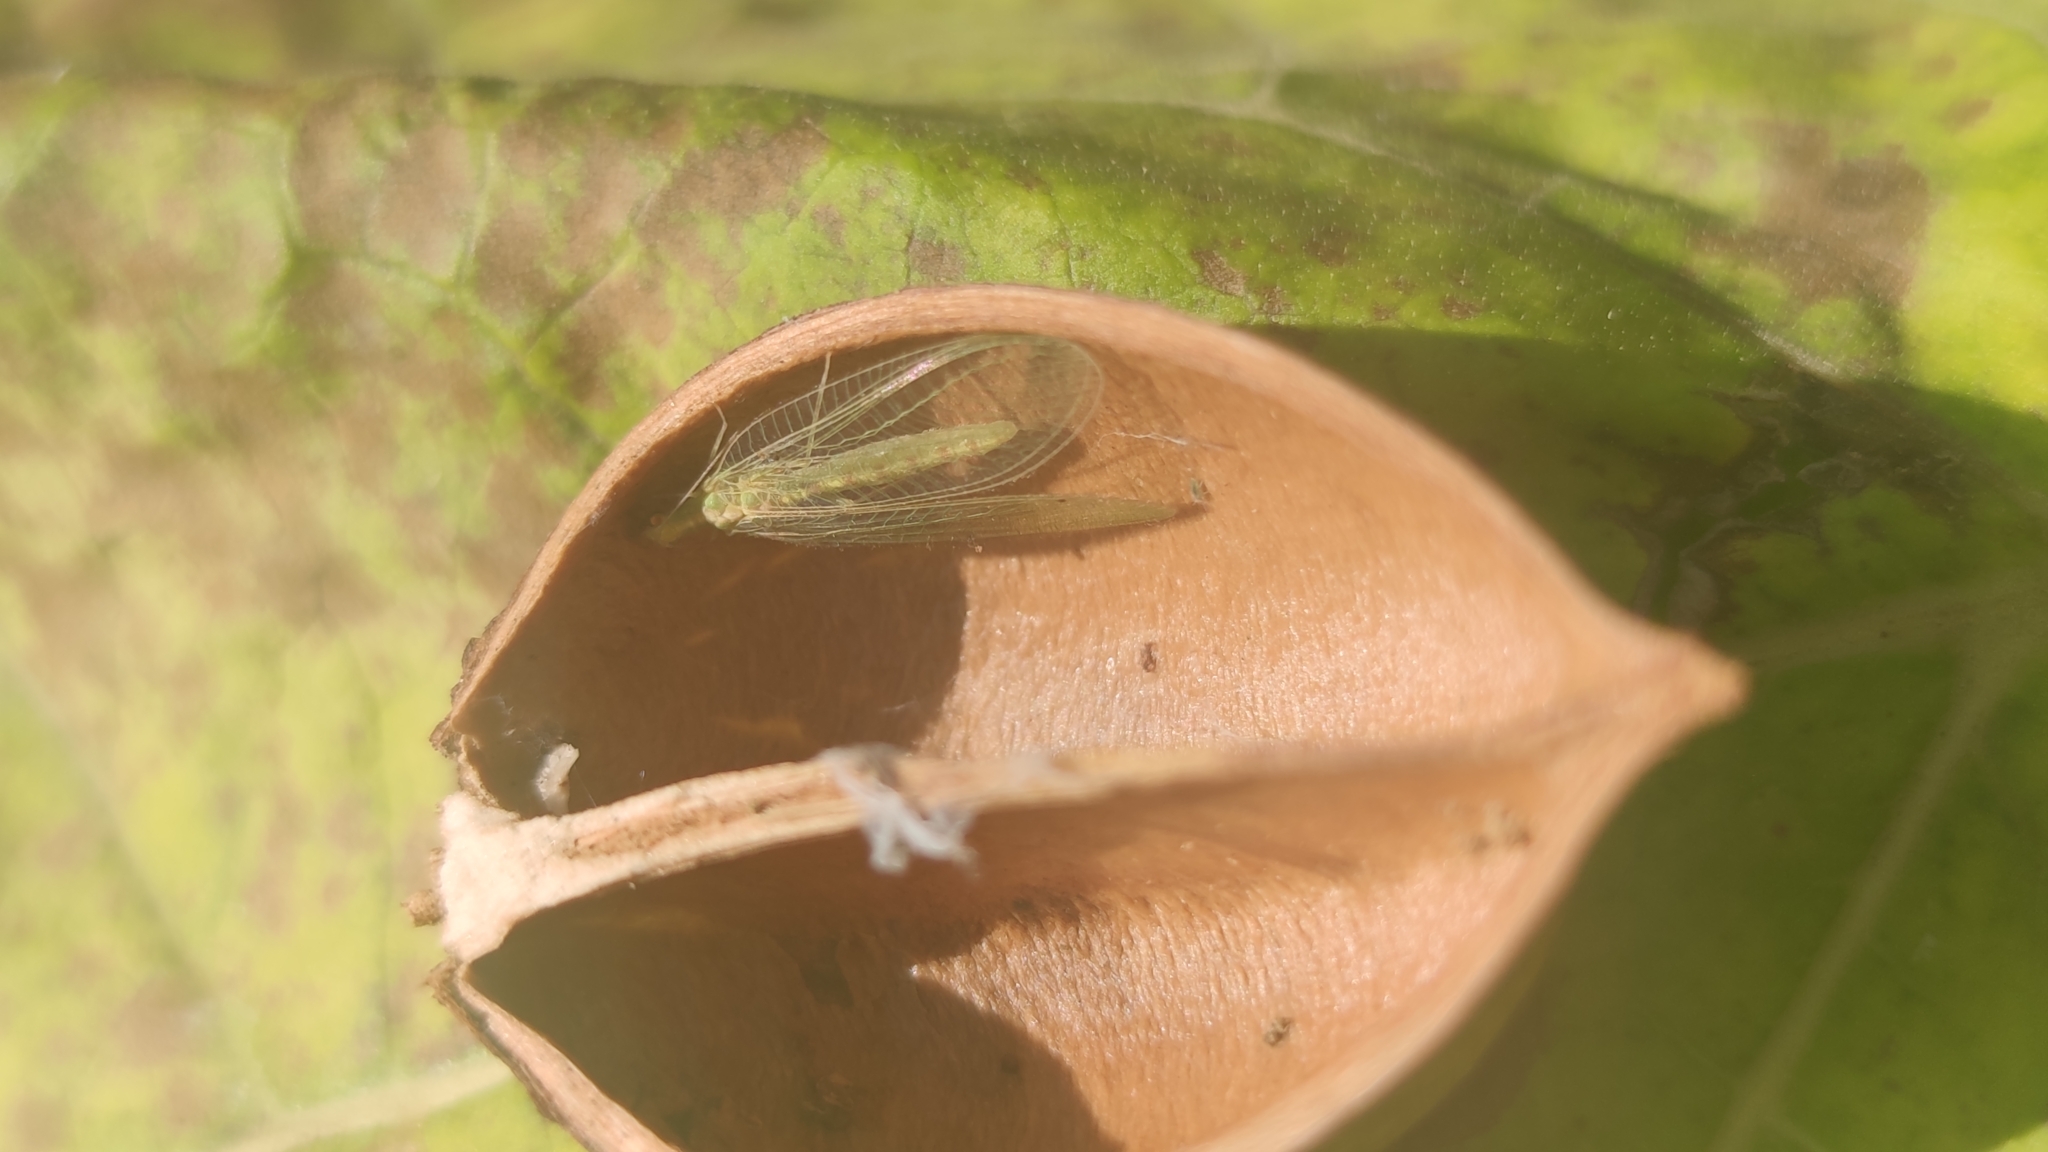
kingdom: Animalia
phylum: Arthropoda
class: Insecta
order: Neuroptera
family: Chrysopidae
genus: Chrysoperla
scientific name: Chrysoperla
